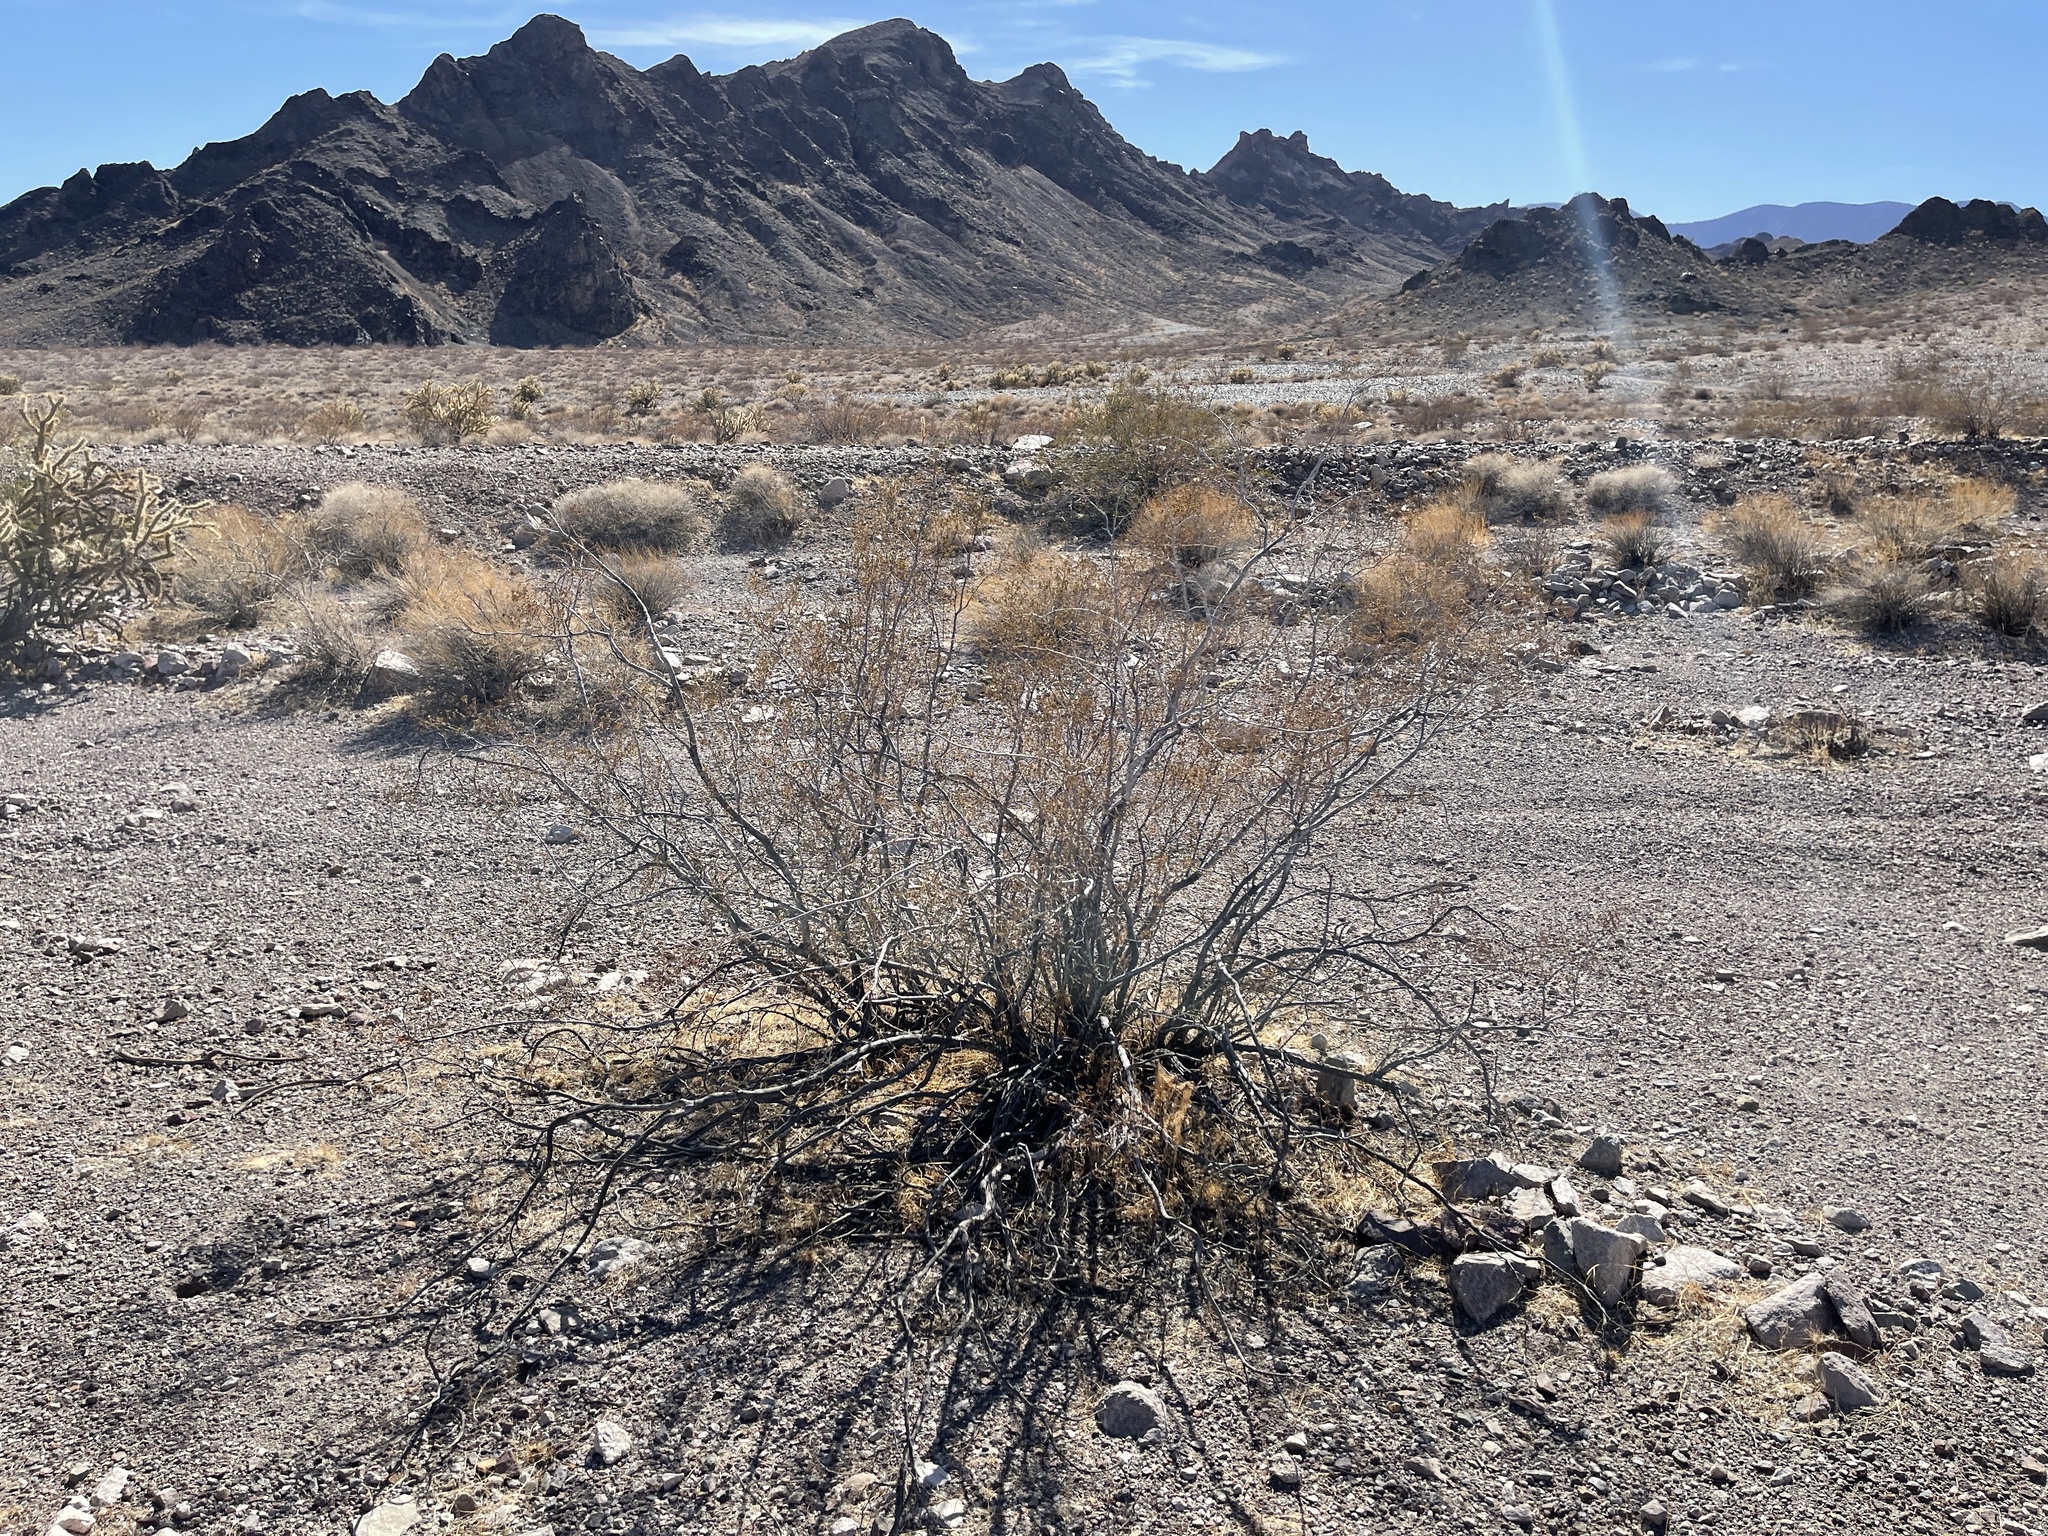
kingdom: Plantae
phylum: Tracheophyta
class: Magnoliopsida
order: Zygophyllales
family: Zygophyllaceae
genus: Larrea
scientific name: Larrea tridentata
